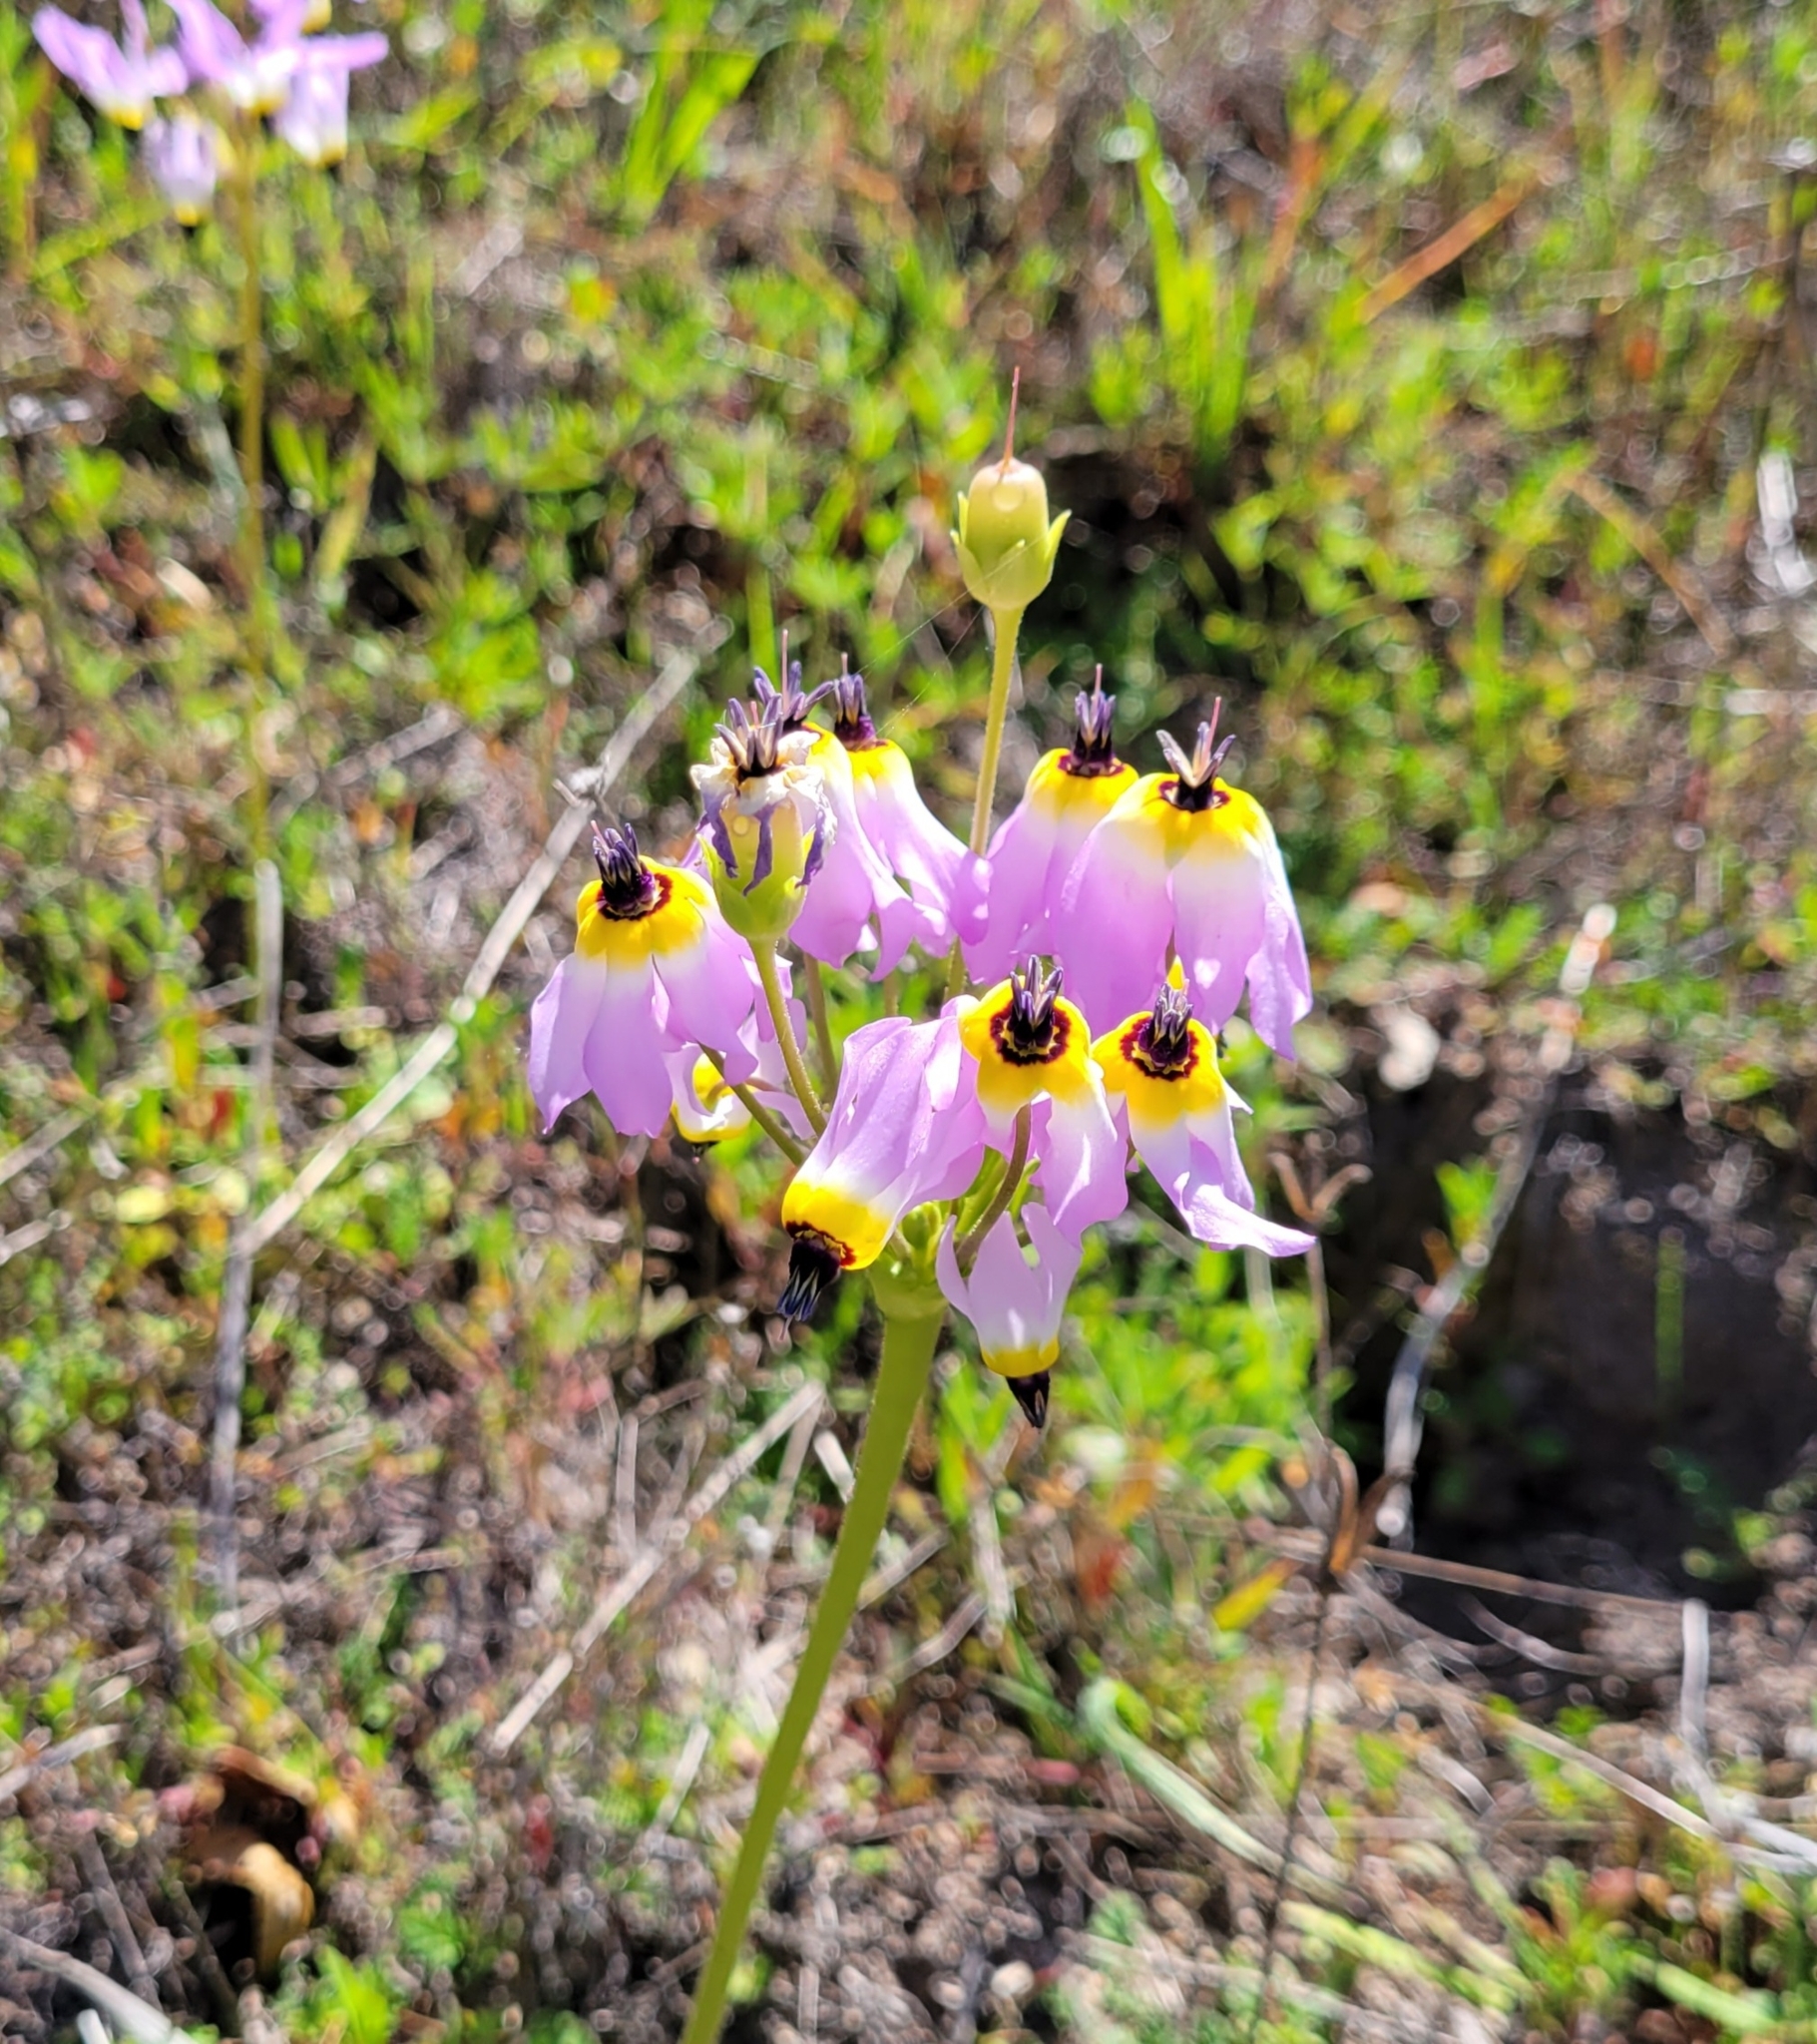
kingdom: Plantae
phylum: Tracheophyta
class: Magnoliopsida
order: Ericales
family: Primulaceae
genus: Dodecatheon
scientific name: Dodecatheon clevelandii
